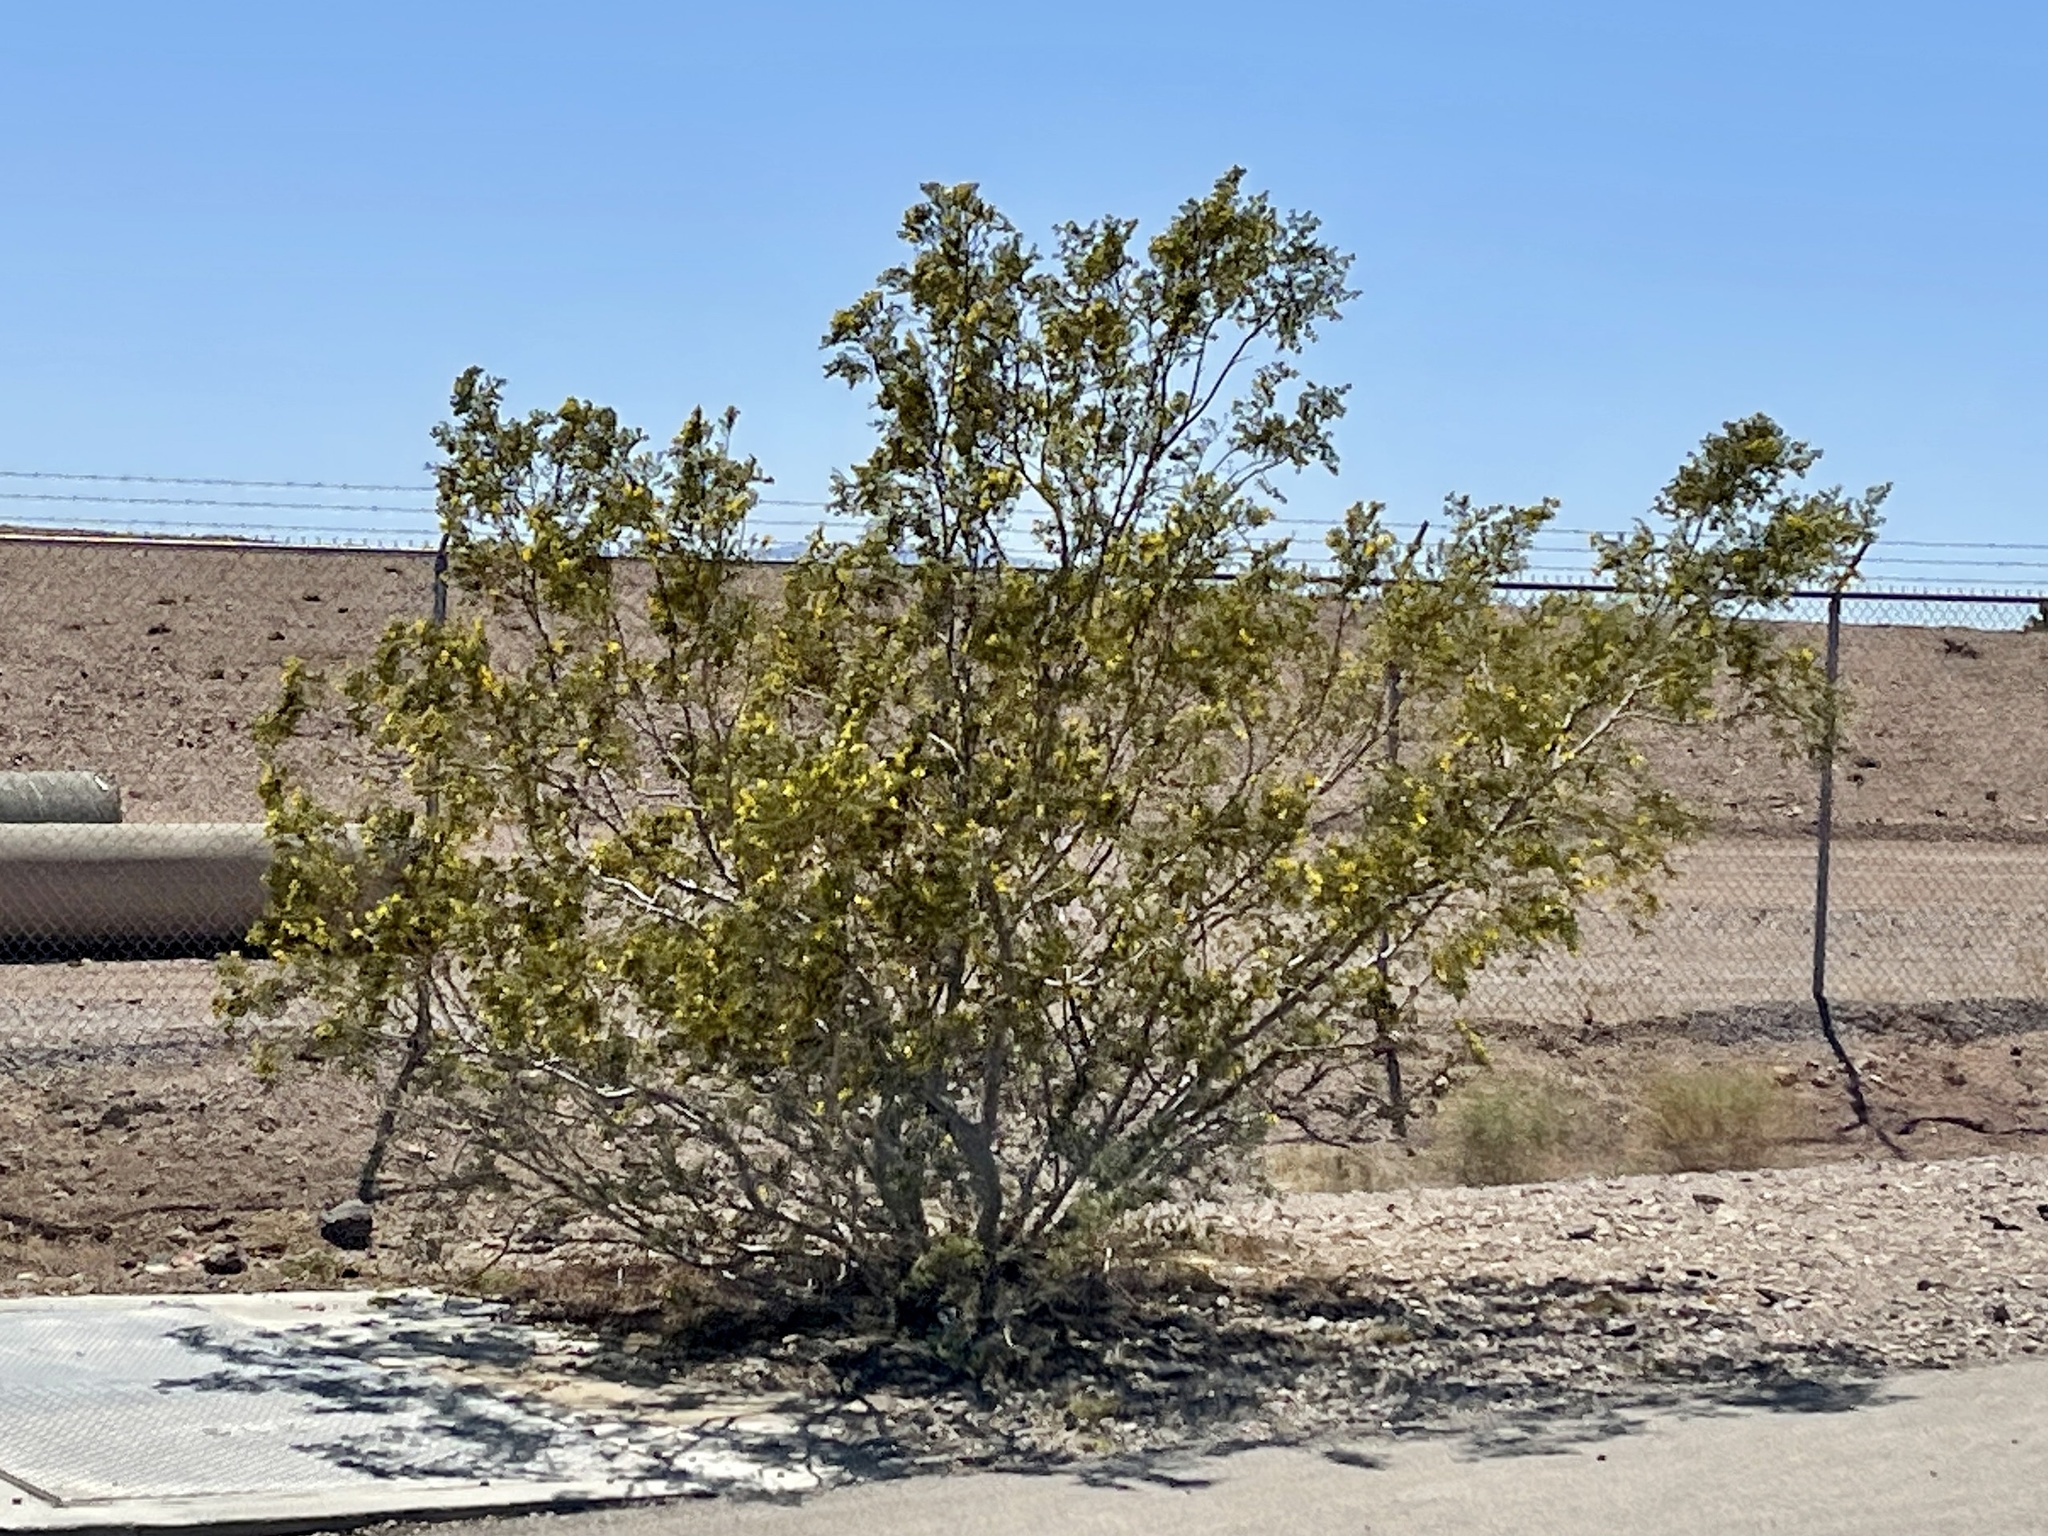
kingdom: Plantae
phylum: Tracheophyta
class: Magnoliopsida
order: Zygophyllales
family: Zygophyllaceae
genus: Larrea
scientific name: Larrea tridentata
